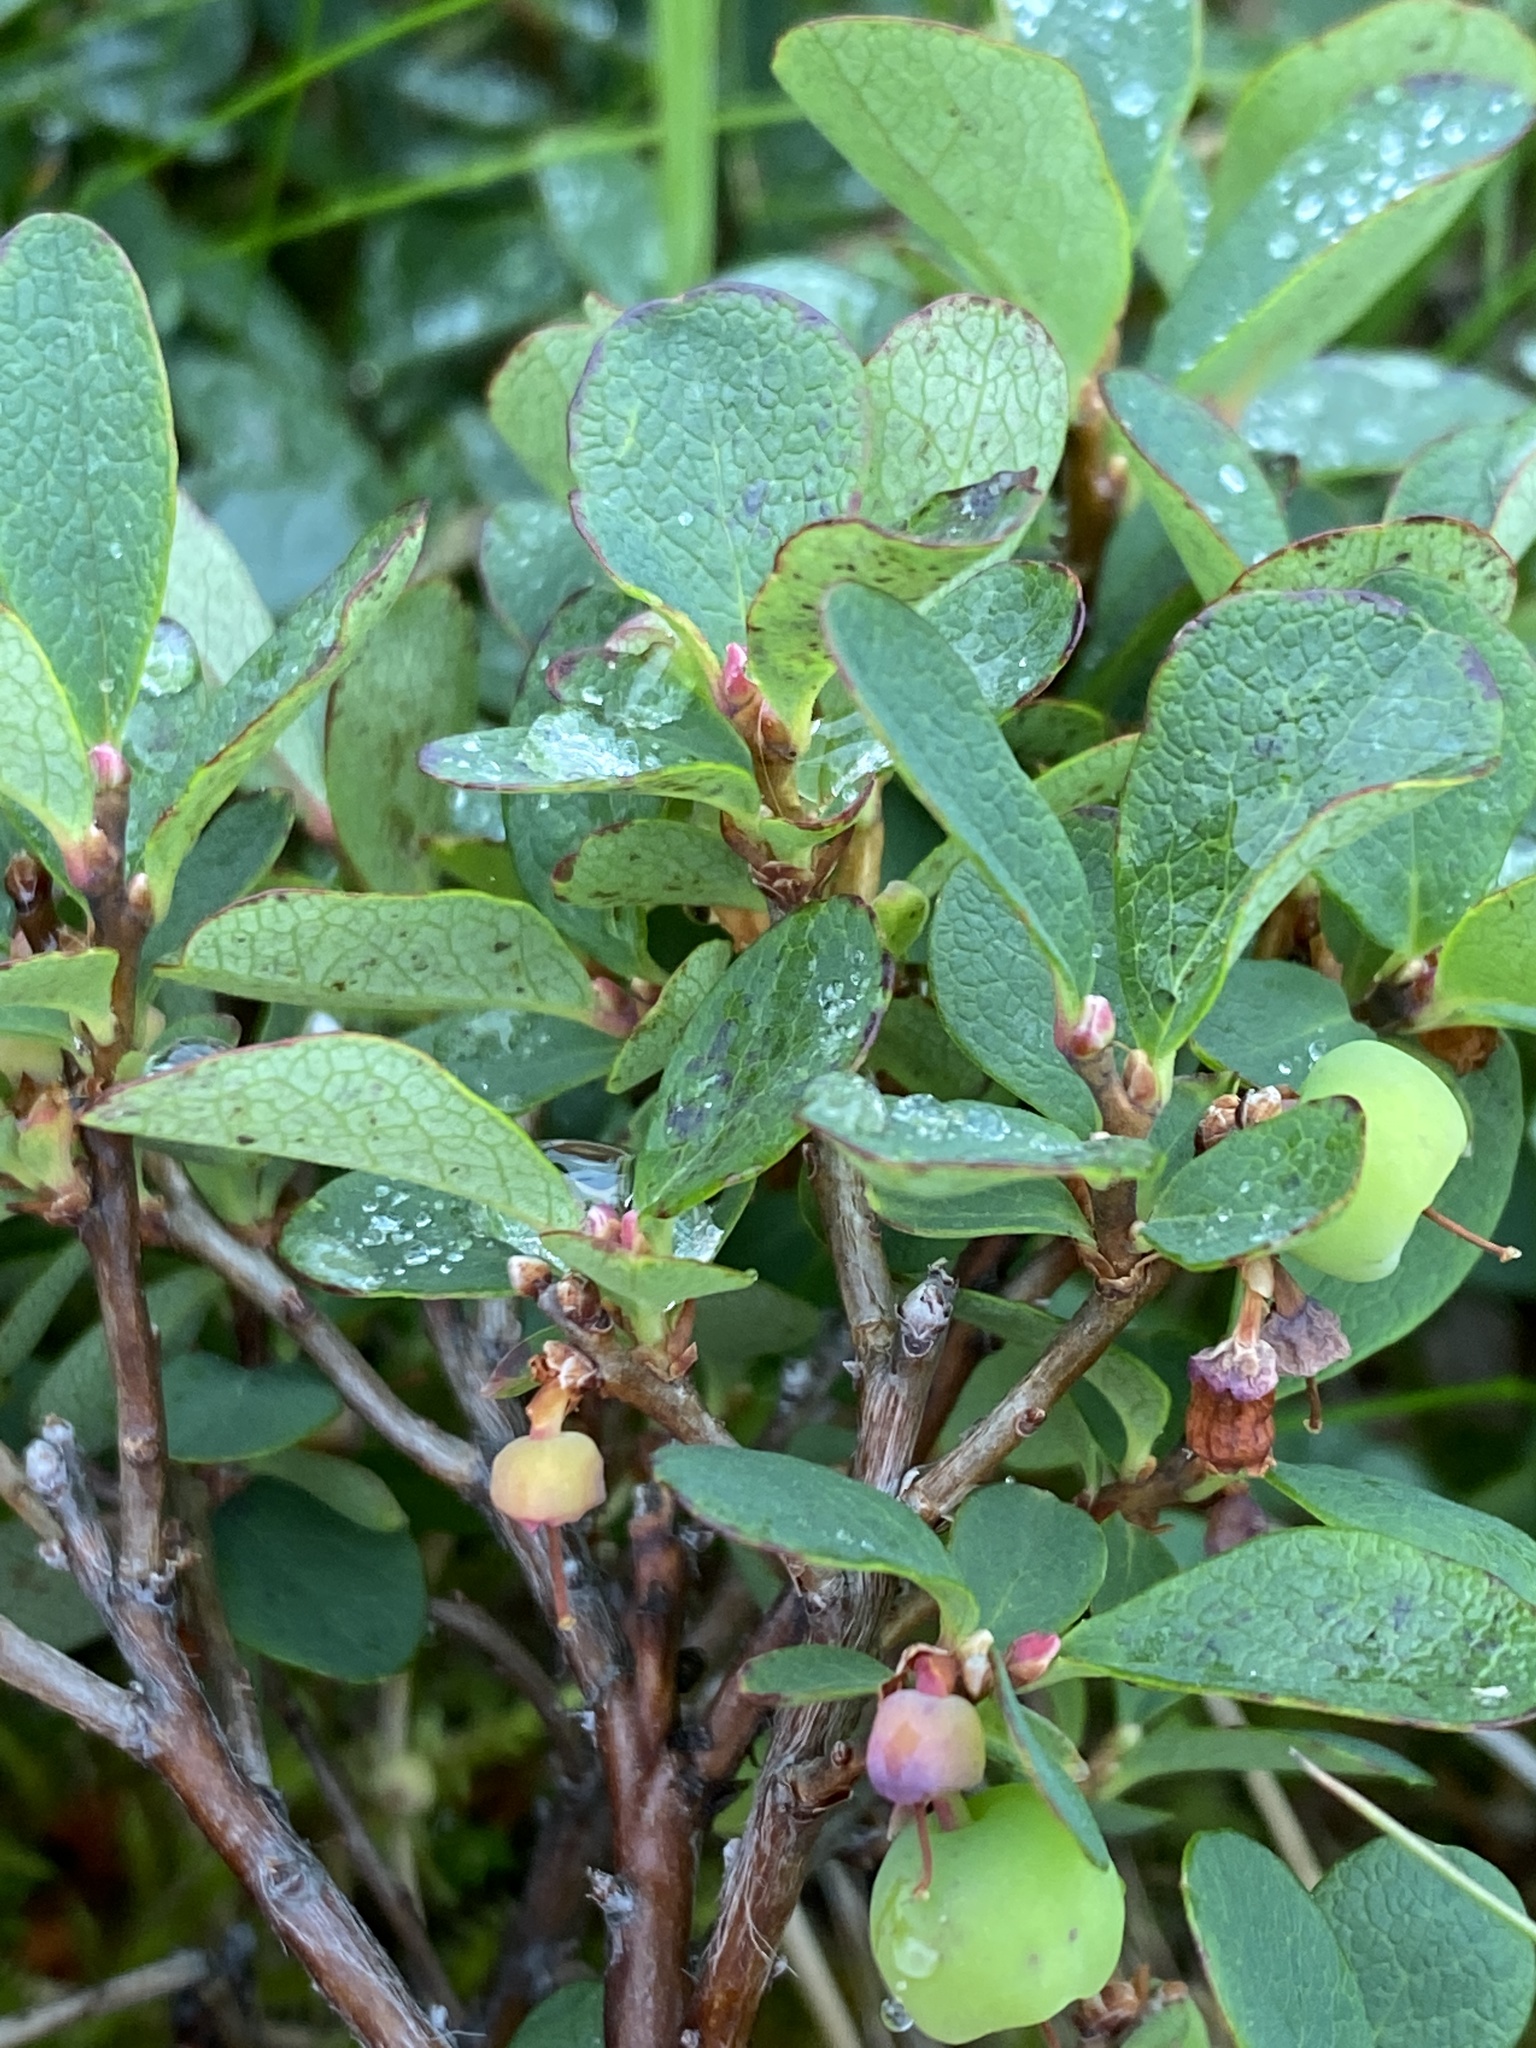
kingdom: Plantae
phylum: Tracheophyta
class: Magnoliopsida
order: Ericales
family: Ericaceae
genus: Vaccinium
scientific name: Vaccinium uliginosum
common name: Bog bilberry
